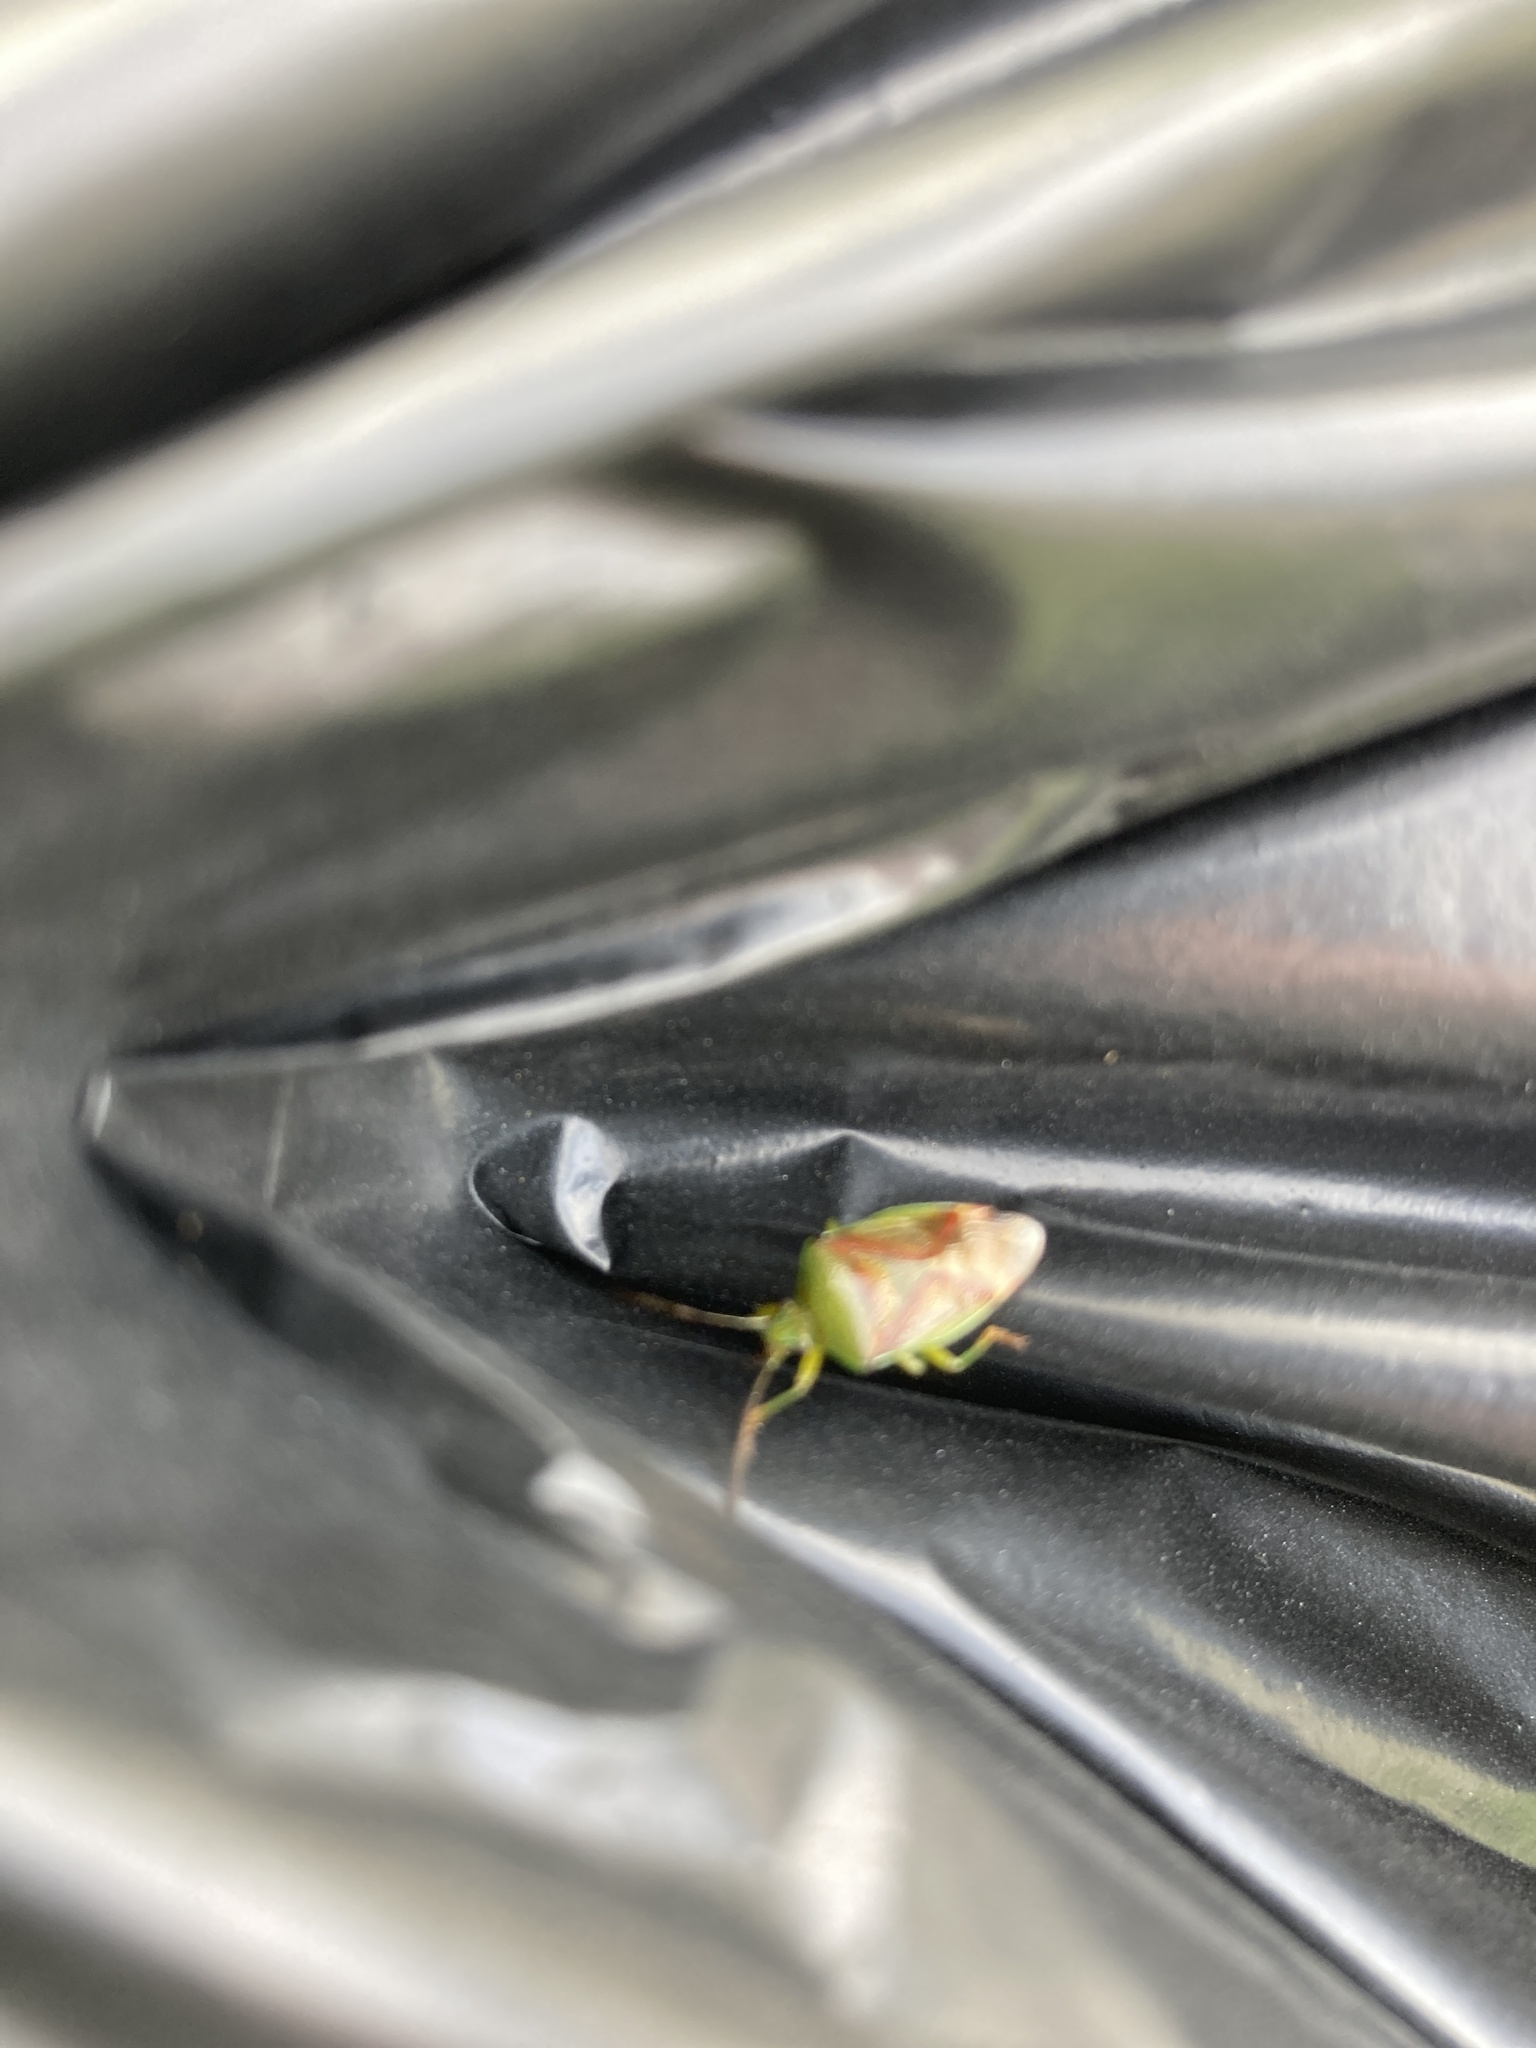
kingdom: Animalia
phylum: Arthropoda
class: Insecta
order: Hemiptera
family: Acanthosomatidae
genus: Elasmostethus
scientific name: Elasmostethus interstinctus
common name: Birch shieldbug
